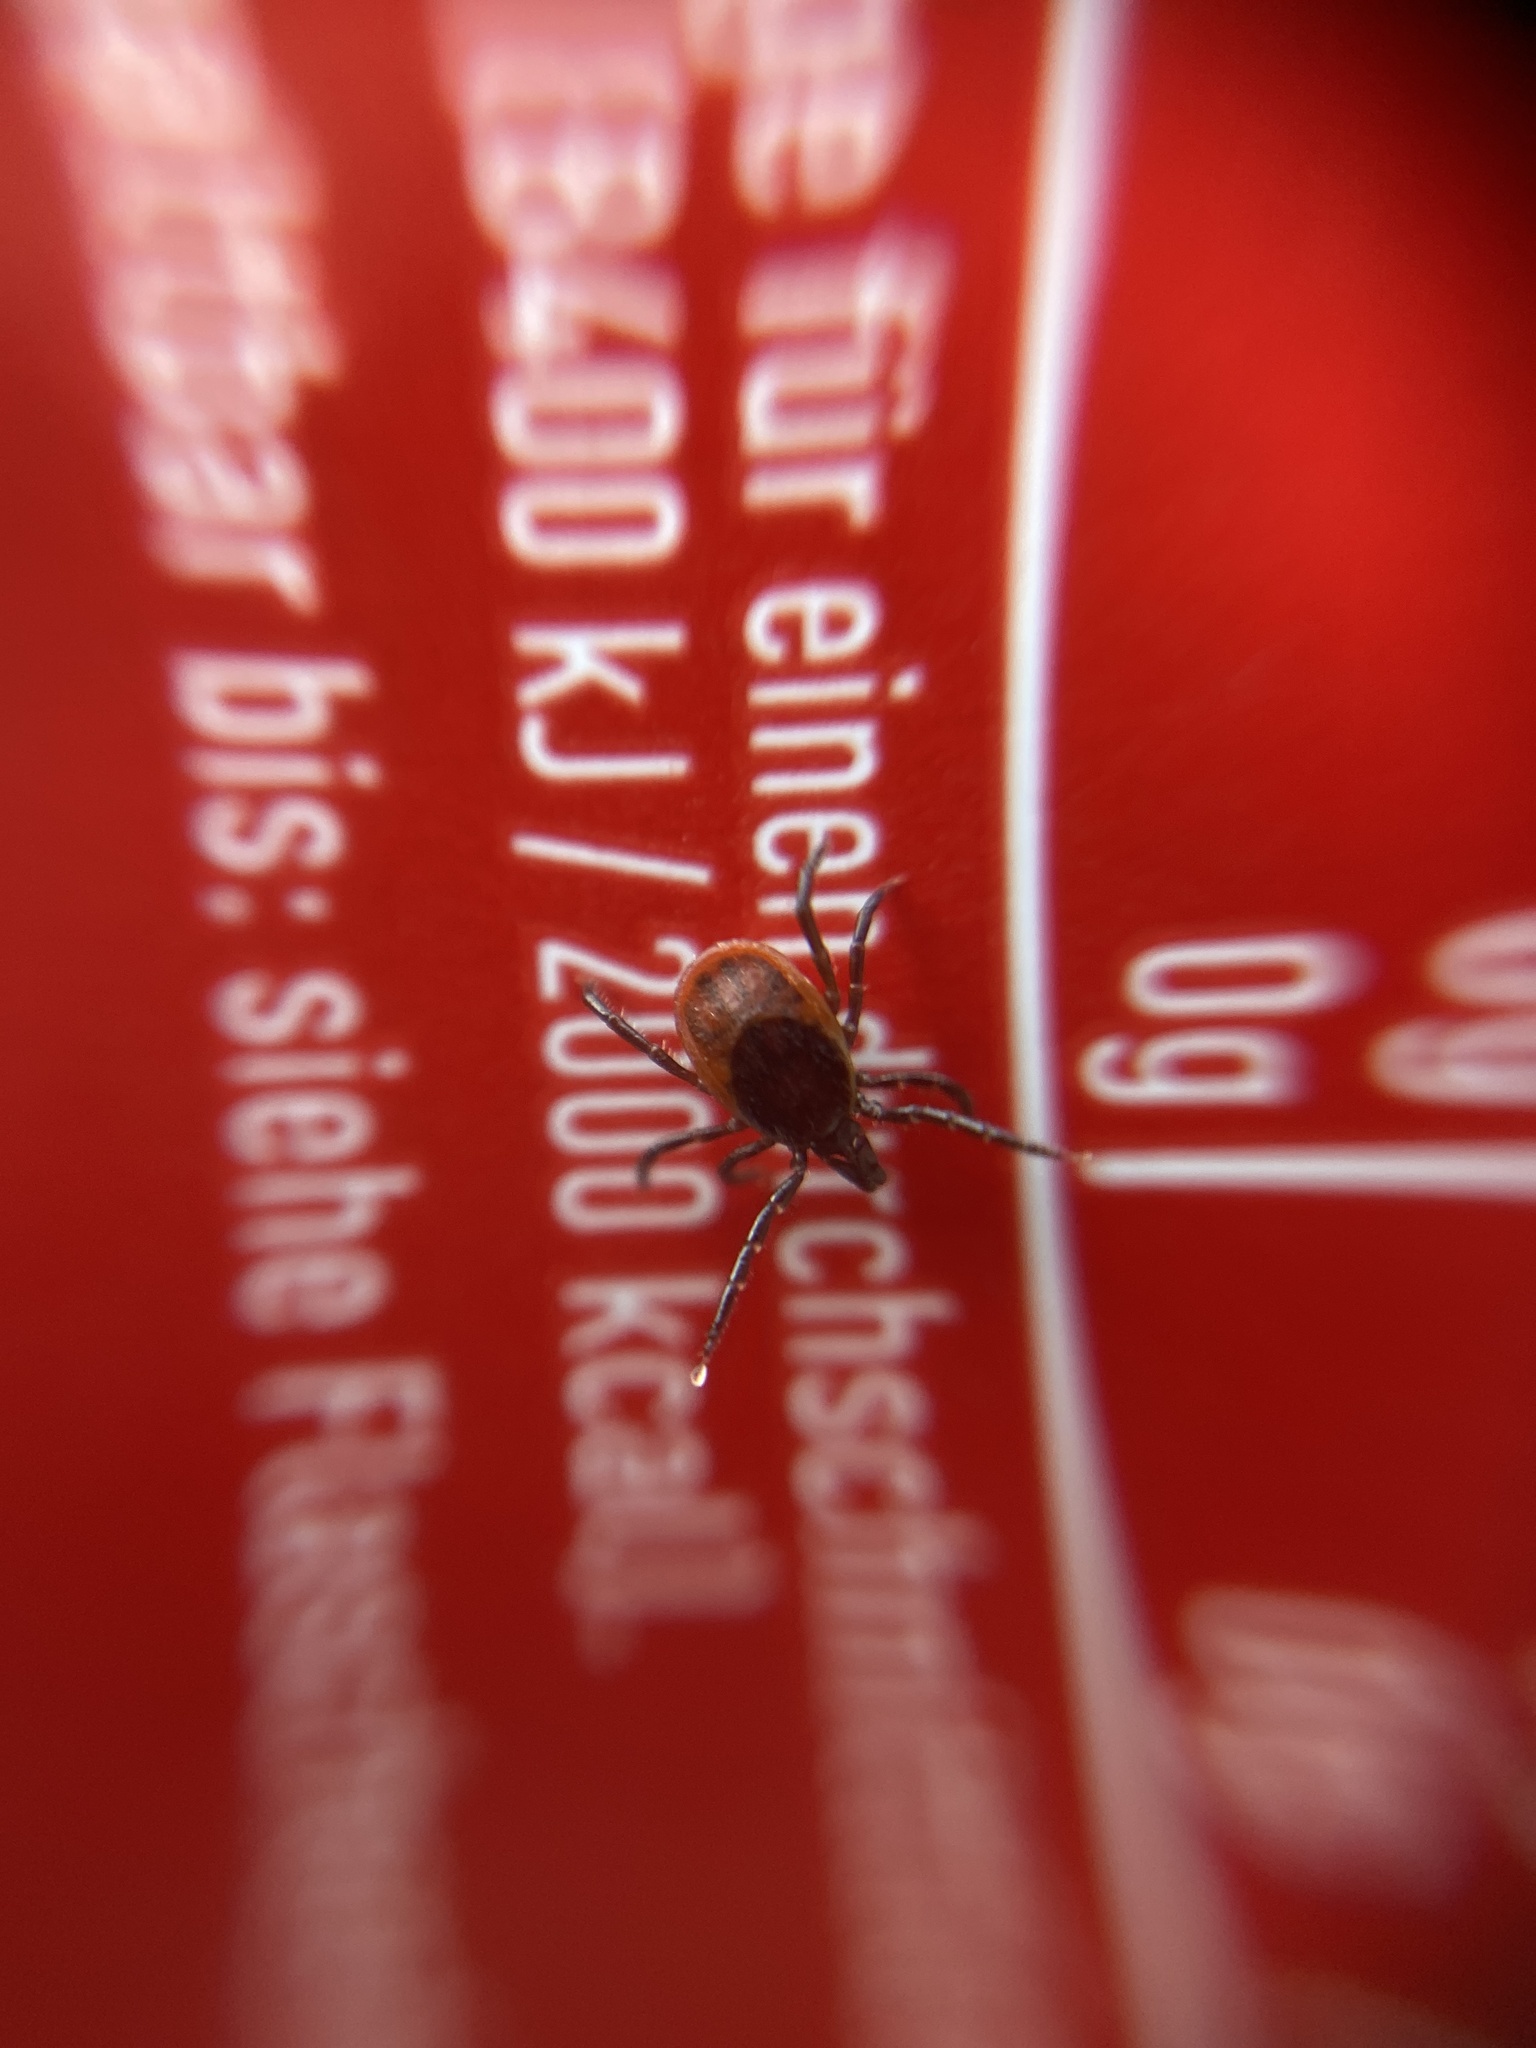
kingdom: Animalia
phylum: Arthropoda
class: Arachnida
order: Ixodida
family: Ixodidae
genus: Ixodes
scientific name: Ixodes ricinus
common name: Castor bean tick
